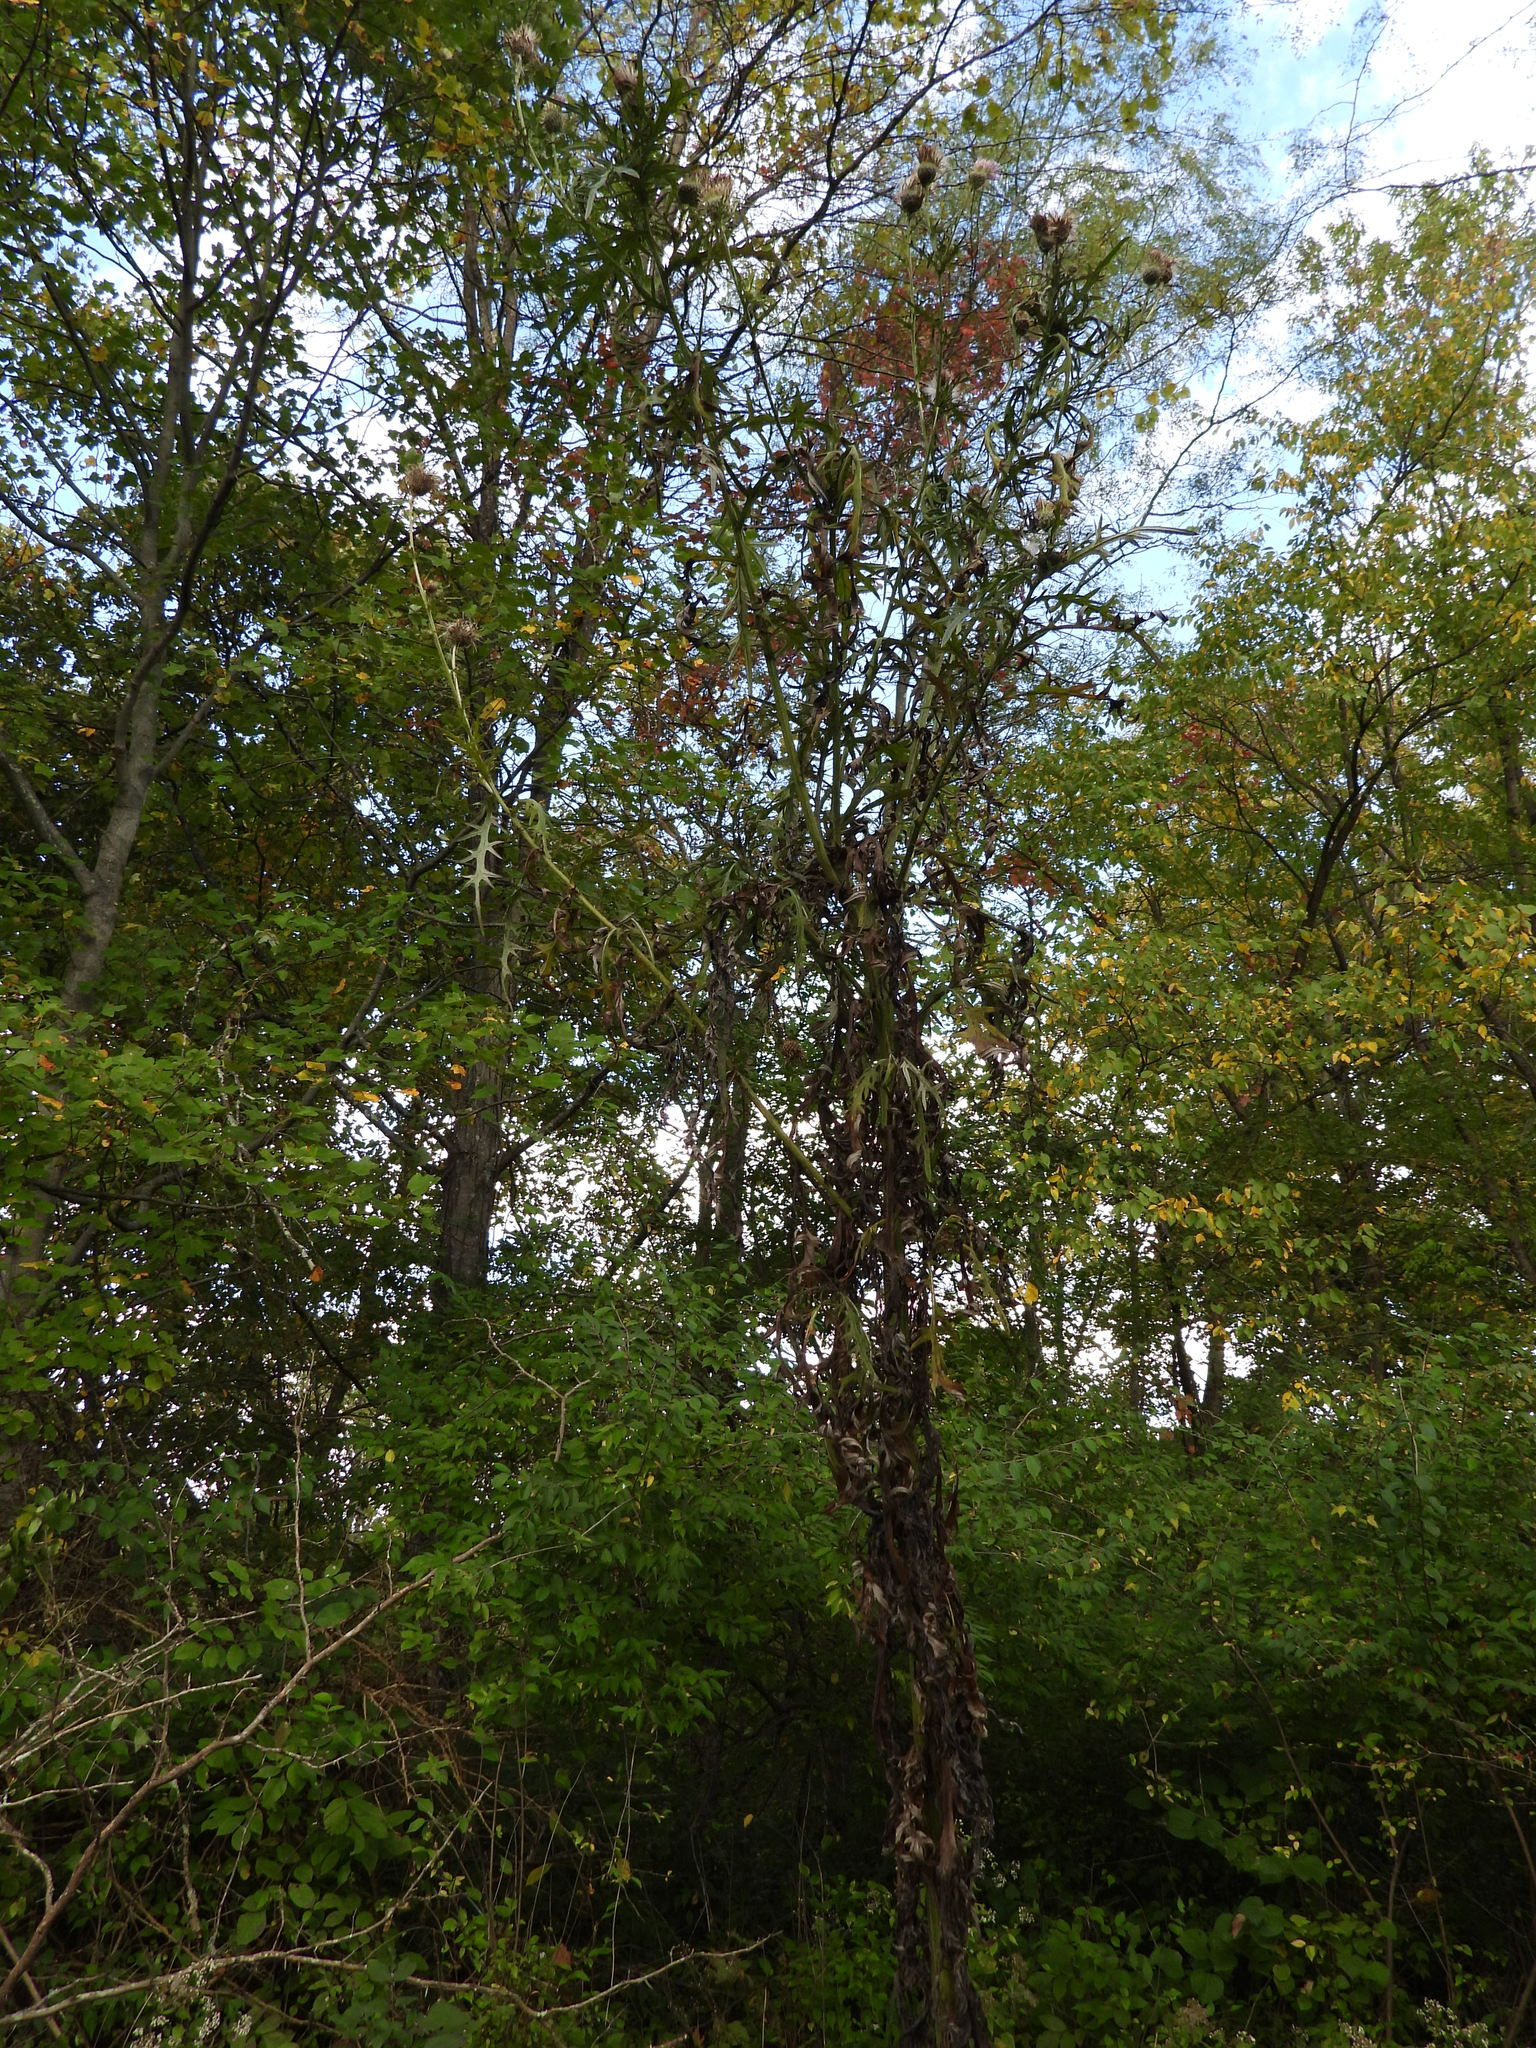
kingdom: Plantae
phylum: Tracheophyta
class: Magnoliopsida
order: Asterales
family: Asteraceae
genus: Cirsium
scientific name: Cirsium discolor
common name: Field thistle
